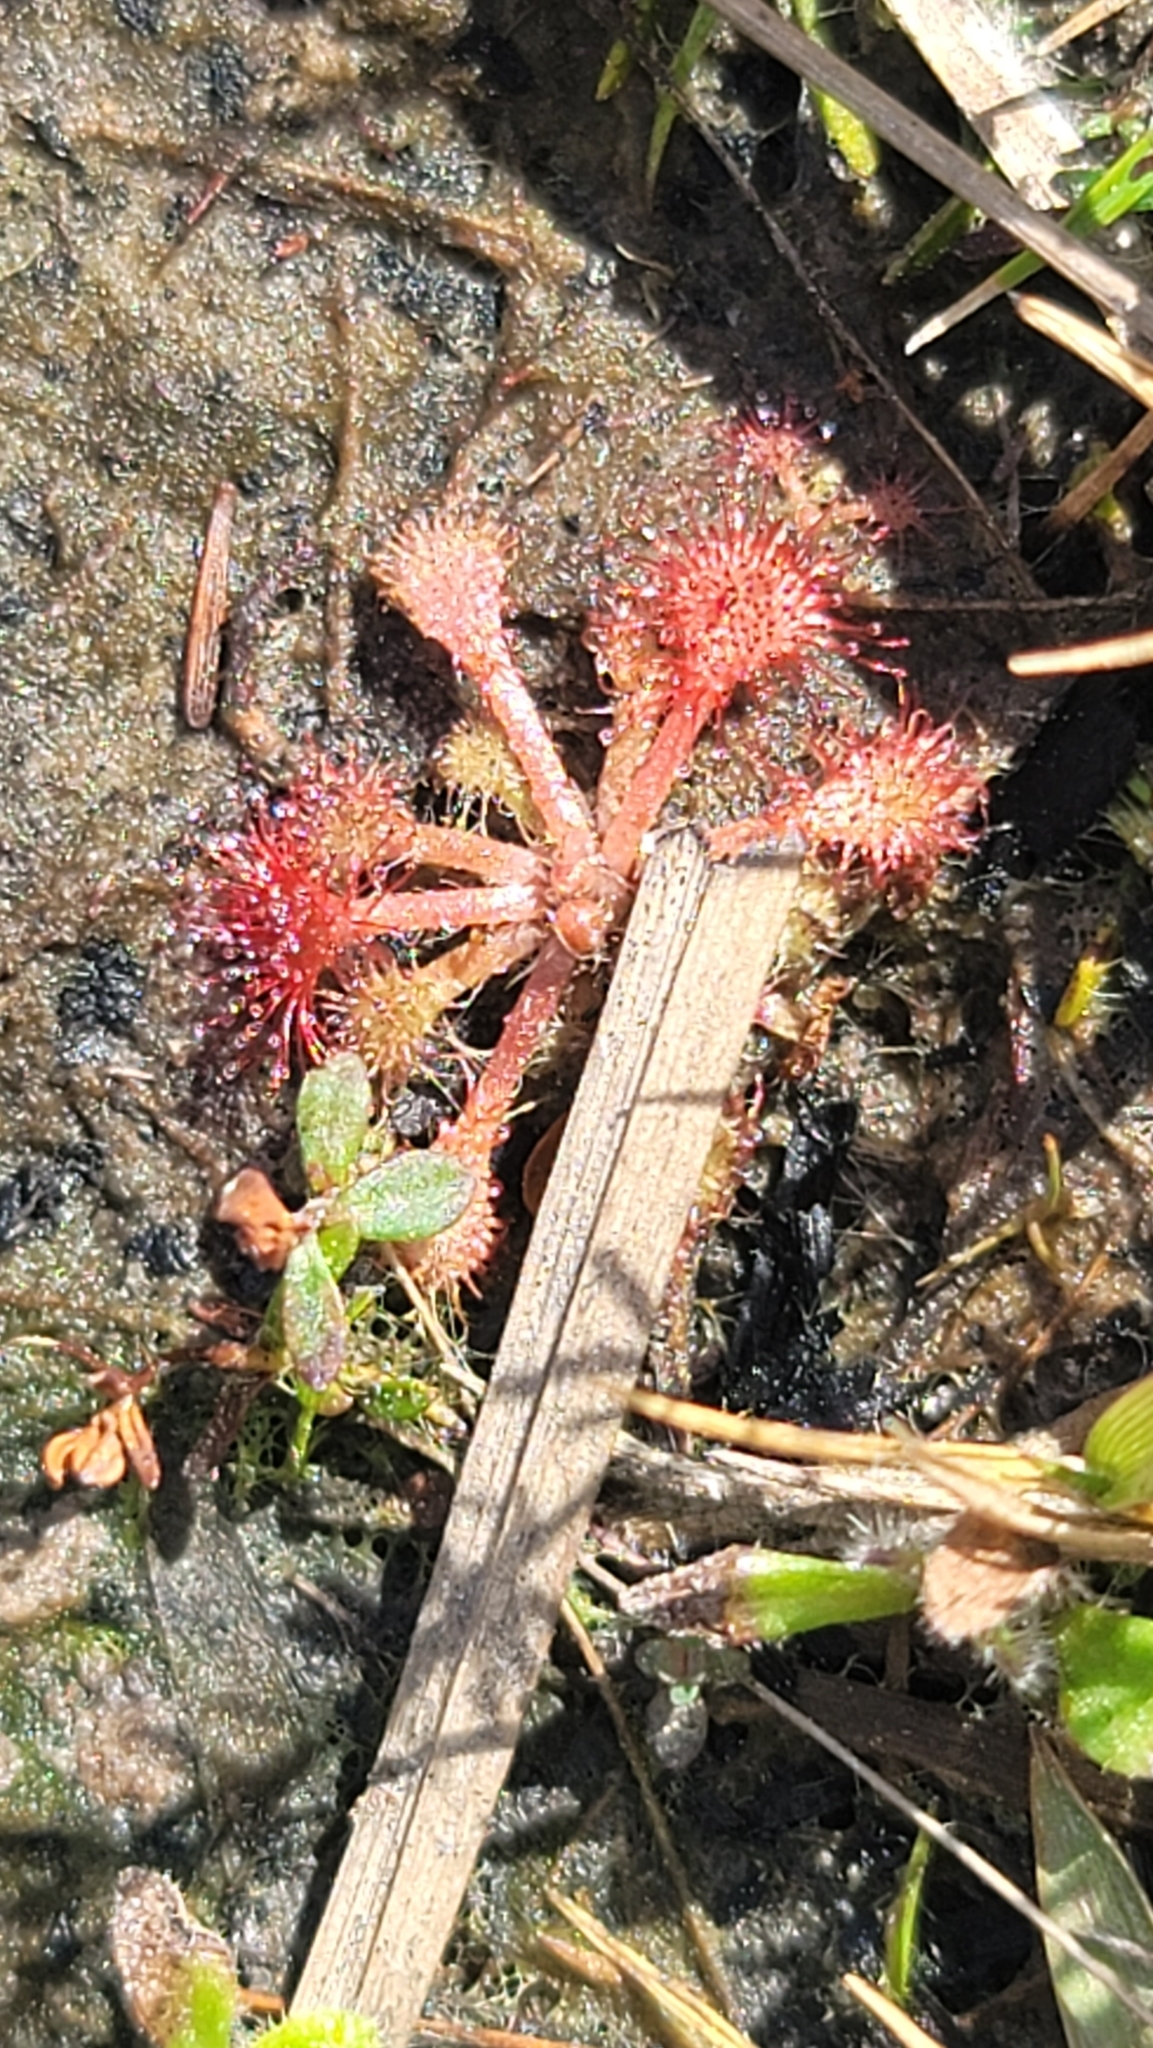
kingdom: Plantae
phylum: Tracheophyta
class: Magnoliopsida
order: Caryophyllales
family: Droseraceae
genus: Drosera
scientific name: Drosera capillaris
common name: Pink sundew
